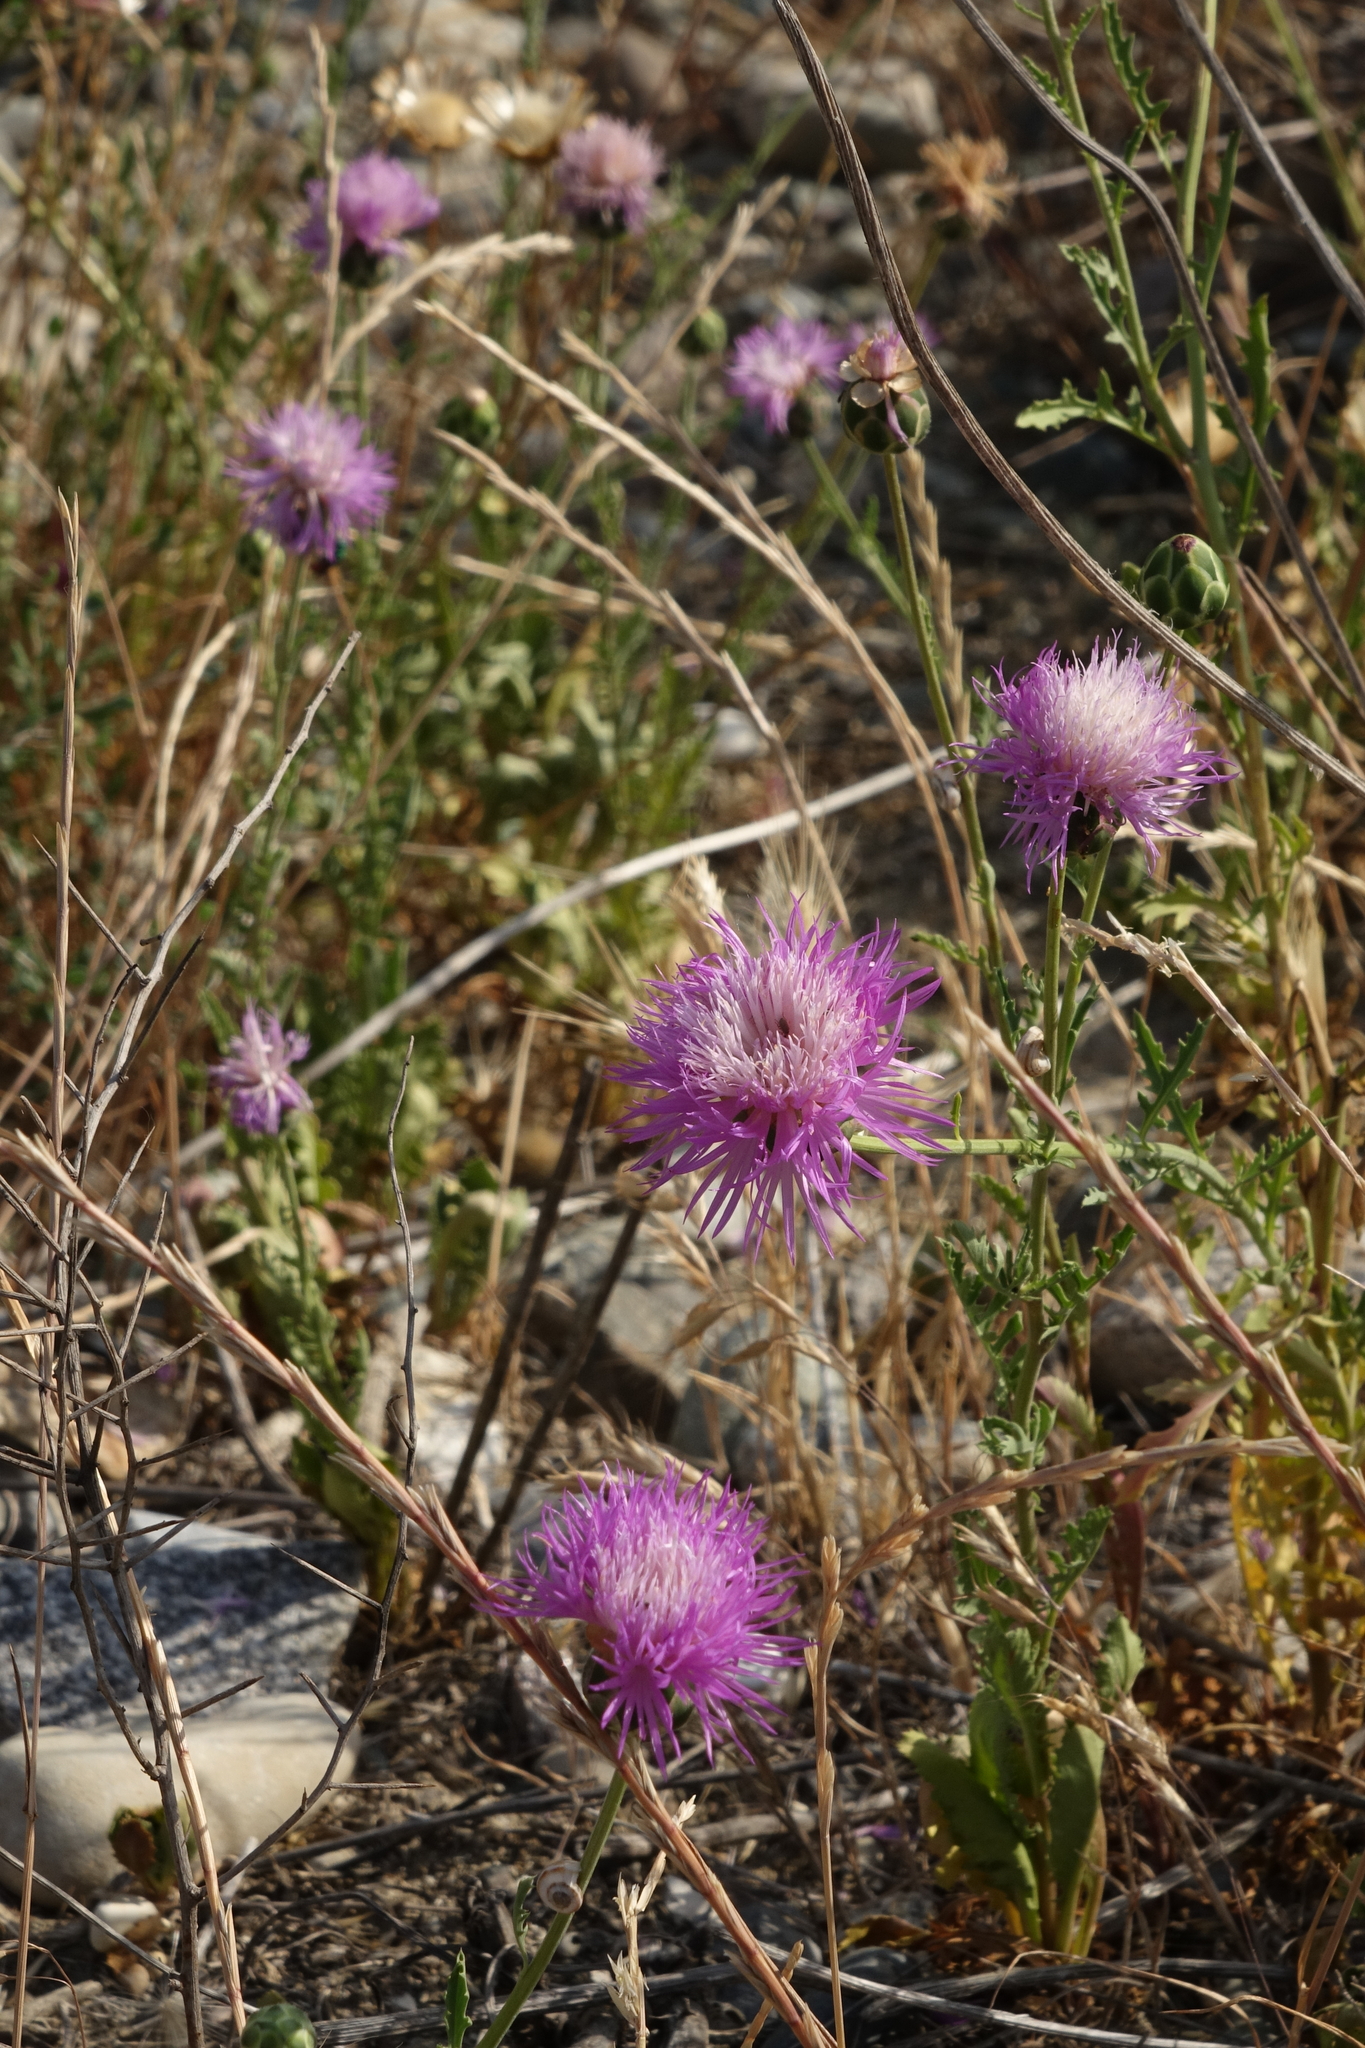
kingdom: Plantae
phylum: Tracheophyta
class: Magnoliopsida
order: Asterales
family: Asteraceae
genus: Amberboa
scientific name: Amberboa glauca
